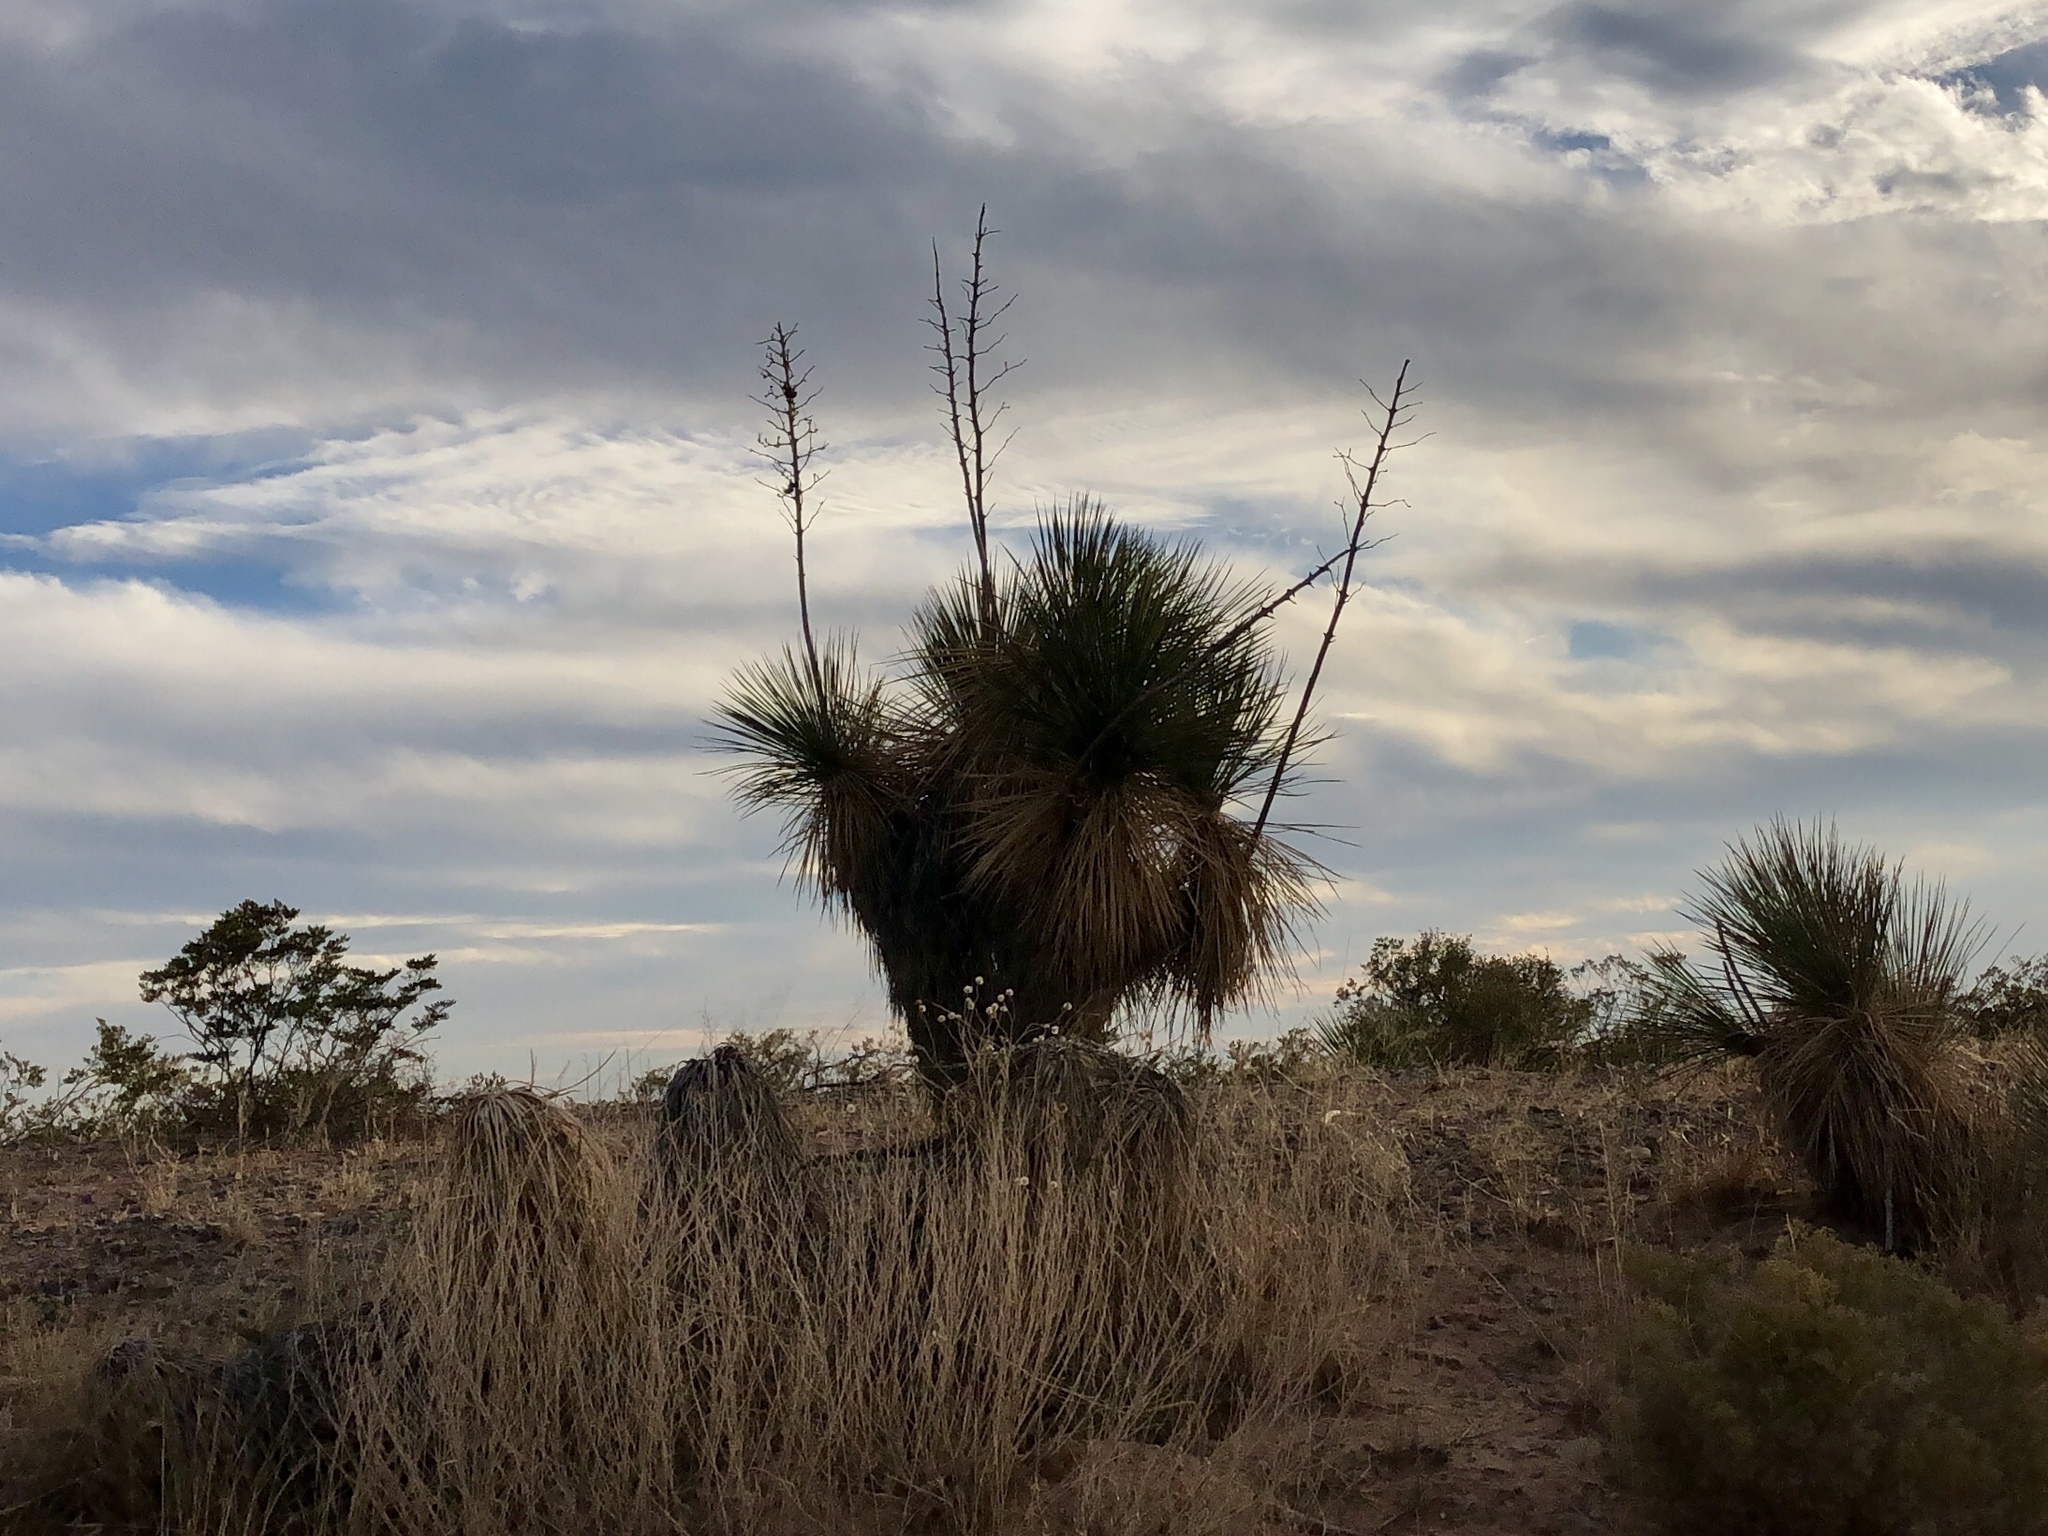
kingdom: Plantae
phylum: Tracheophyta
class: Liliopsida
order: Asparagales
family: Asparagaceae
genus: Yucca
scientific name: Yucca elata
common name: Palmella
